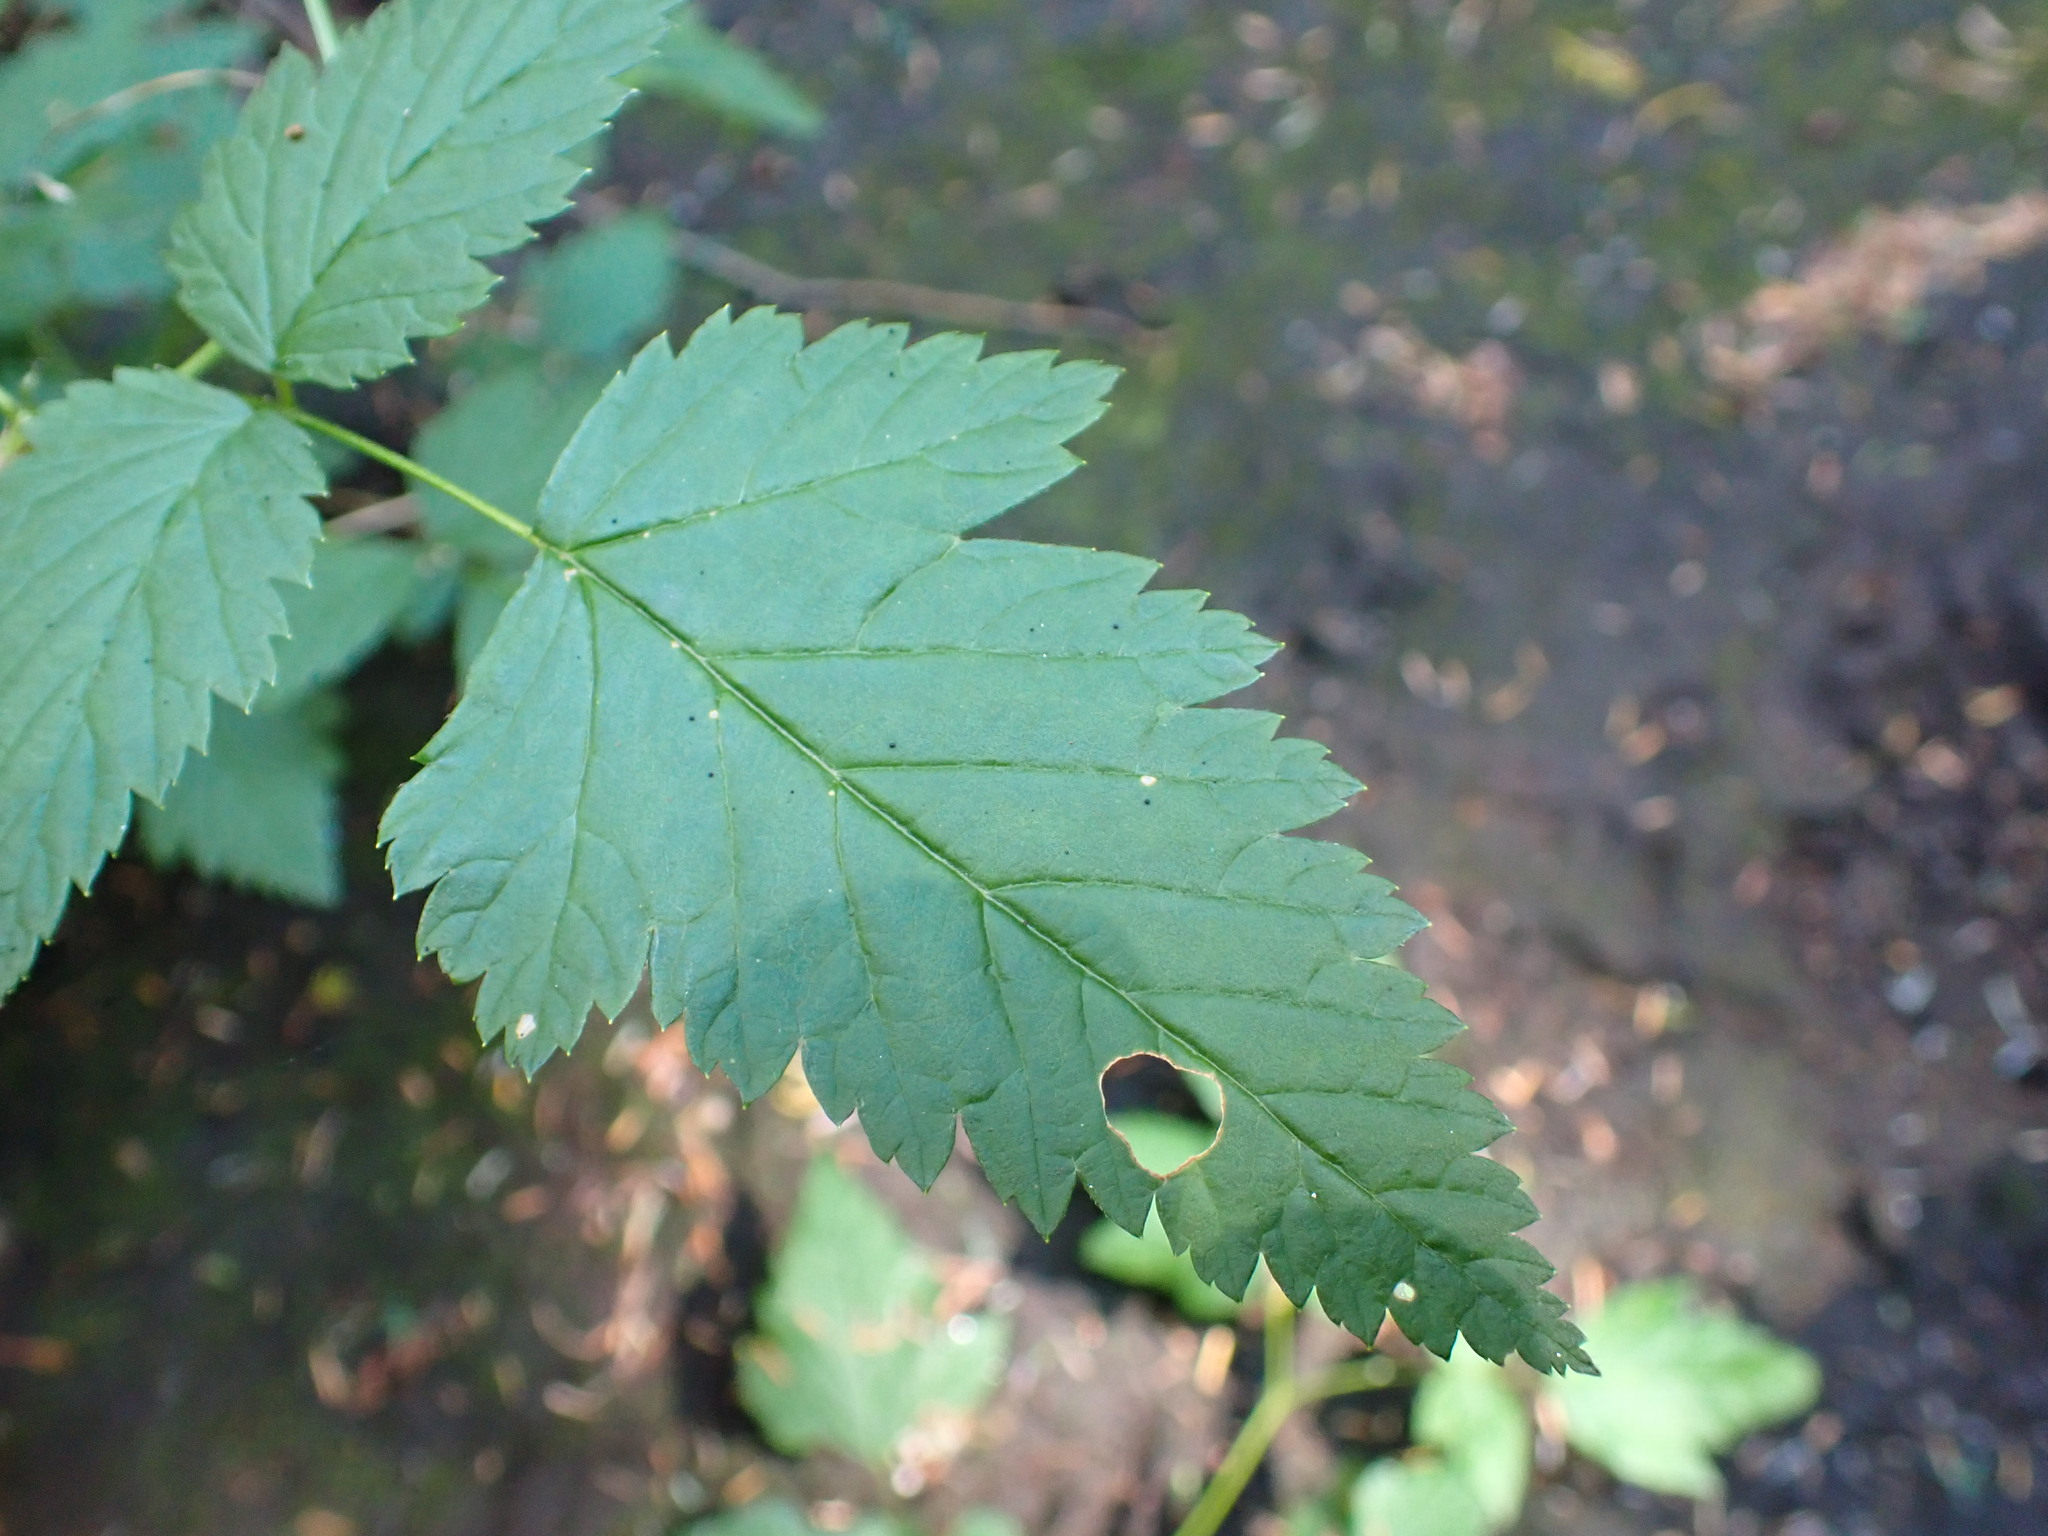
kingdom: Plantae
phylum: Tracheophyta
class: Magnoliopsida
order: Rosales
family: Rosaceae
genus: Rubus
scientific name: Rubus spectabilis
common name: Salmonberry
